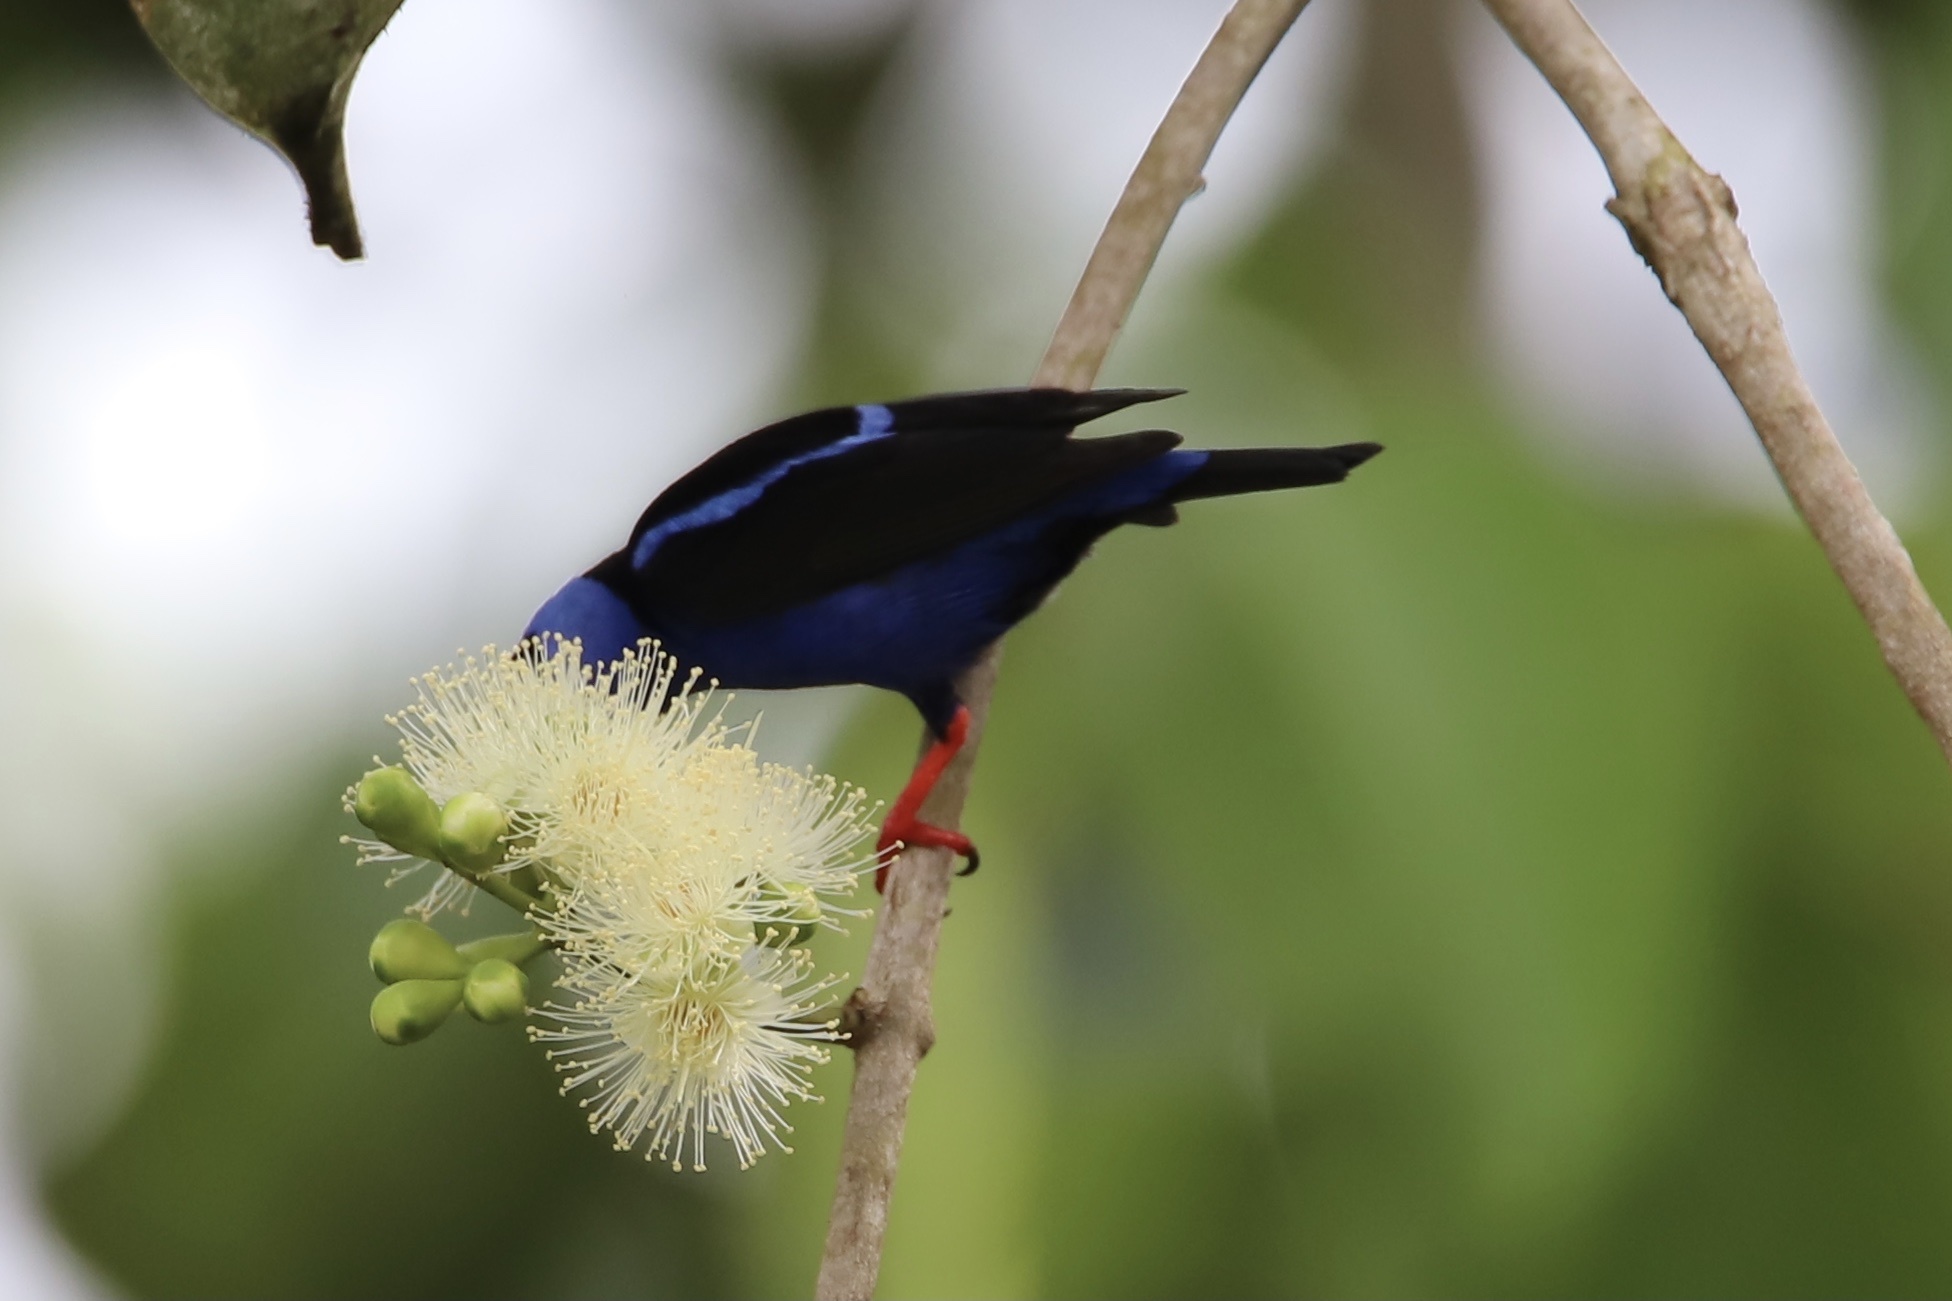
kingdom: Animalia
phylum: Chordata
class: Aves
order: Passeriformes
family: Thraupidae
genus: Cyanerpes
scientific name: Cyanerpes cyaneus
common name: Red-legged honeycreeper
